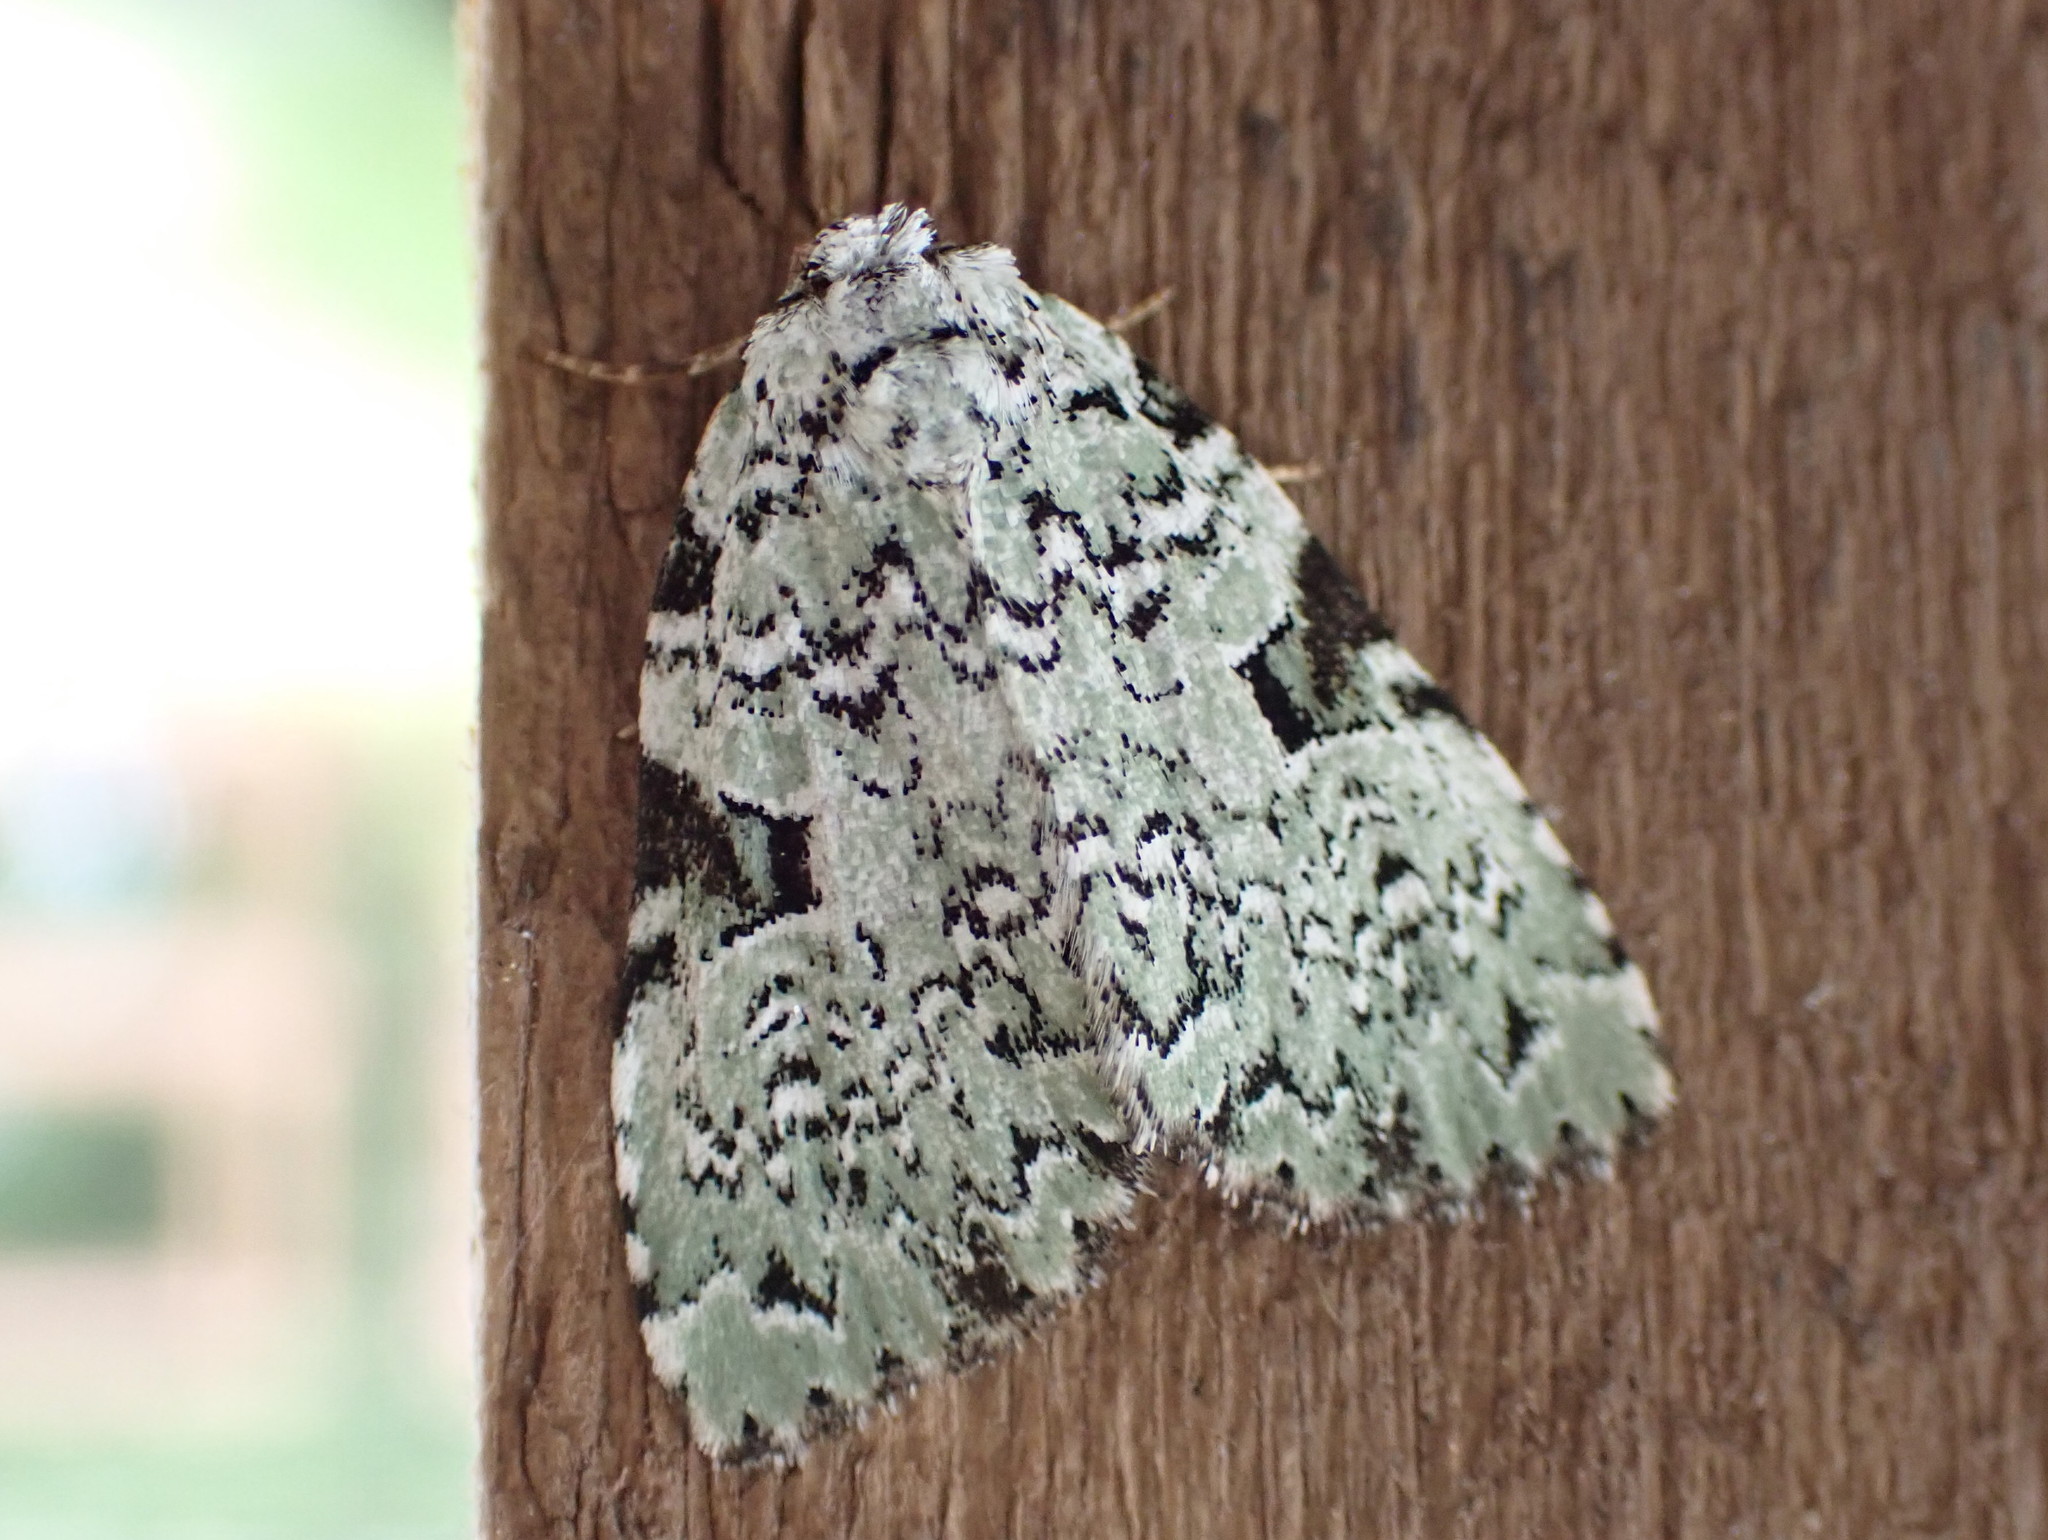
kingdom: Animalia
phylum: Arthropoda
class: Insecta
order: Lepidoptera
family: Noctuidae
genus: Leuconycta
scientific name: Leuconycta diphteroides
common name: Green leuconycta moth
